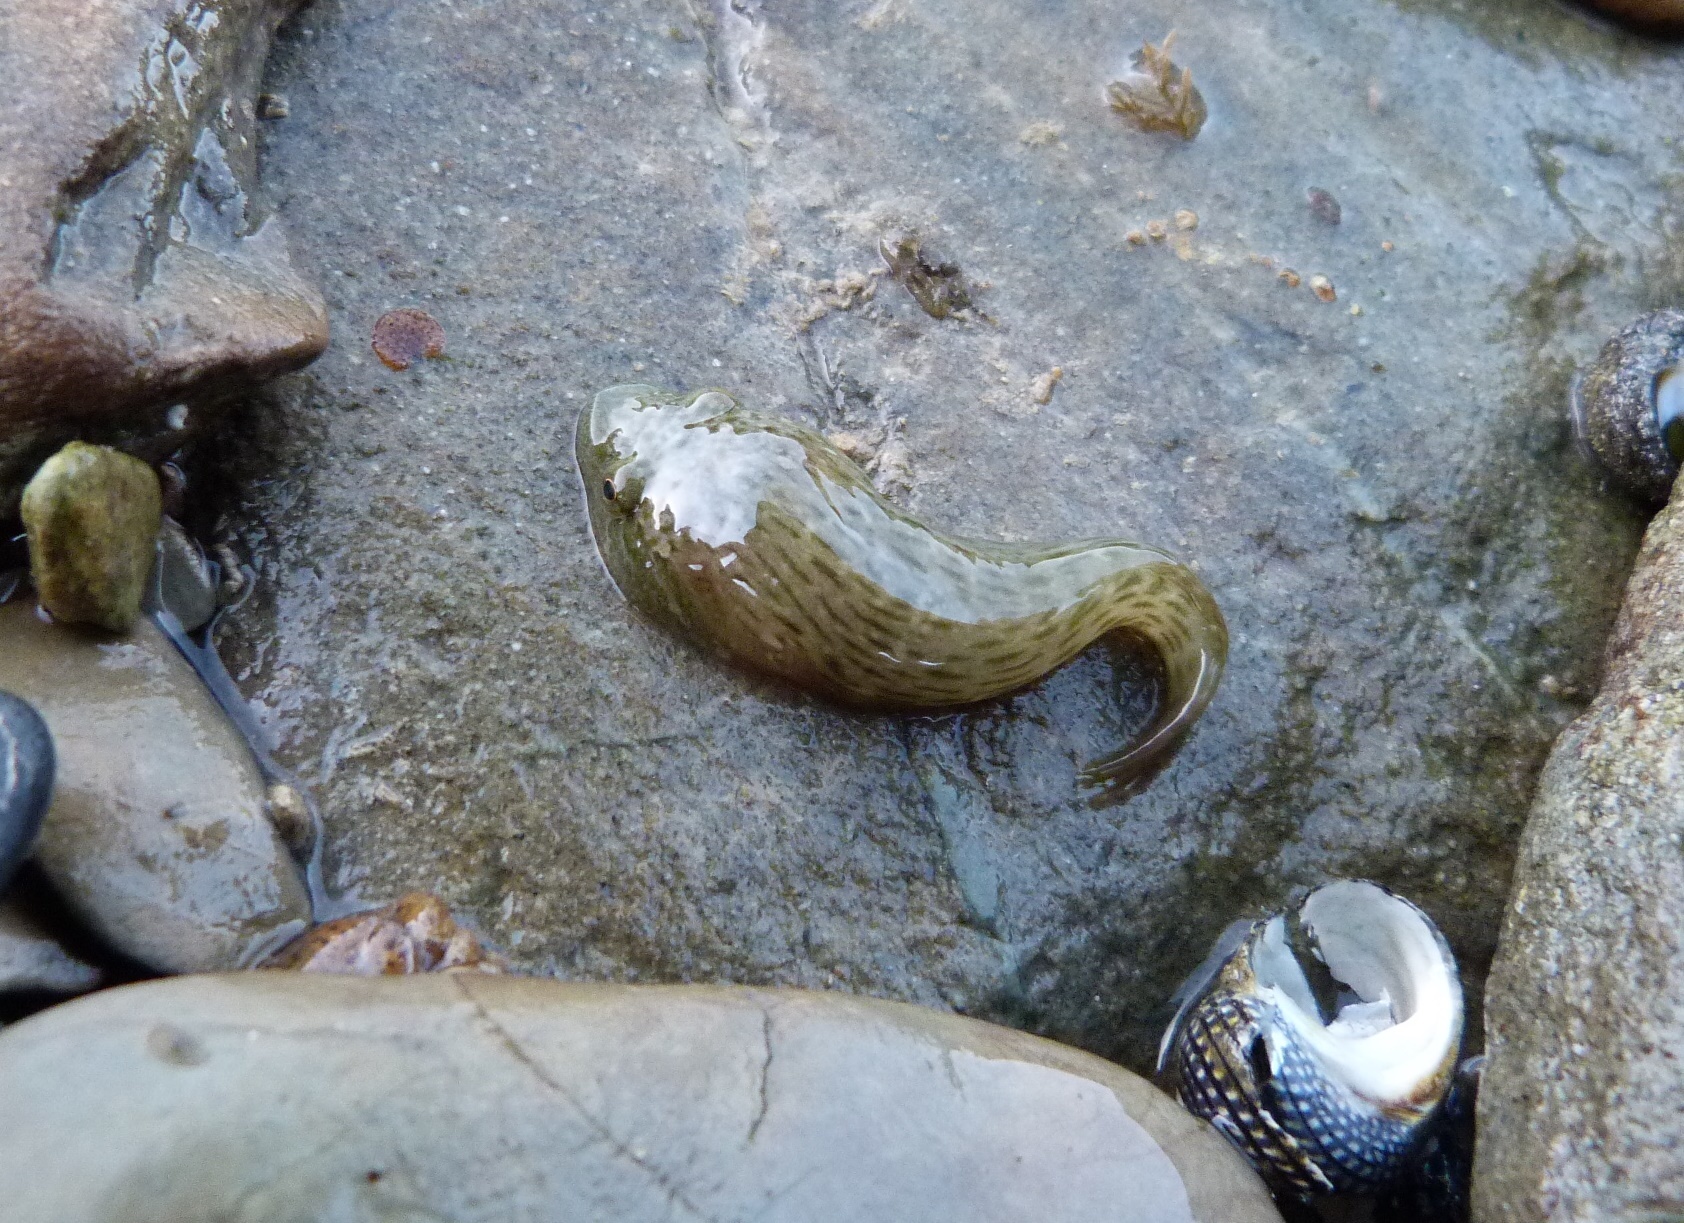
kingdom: Animalia
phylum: Chordata
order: Gobiesociformes
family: Gobiesocidae
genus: Trachelochismus
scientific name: Trachelochismus pinnulatus
